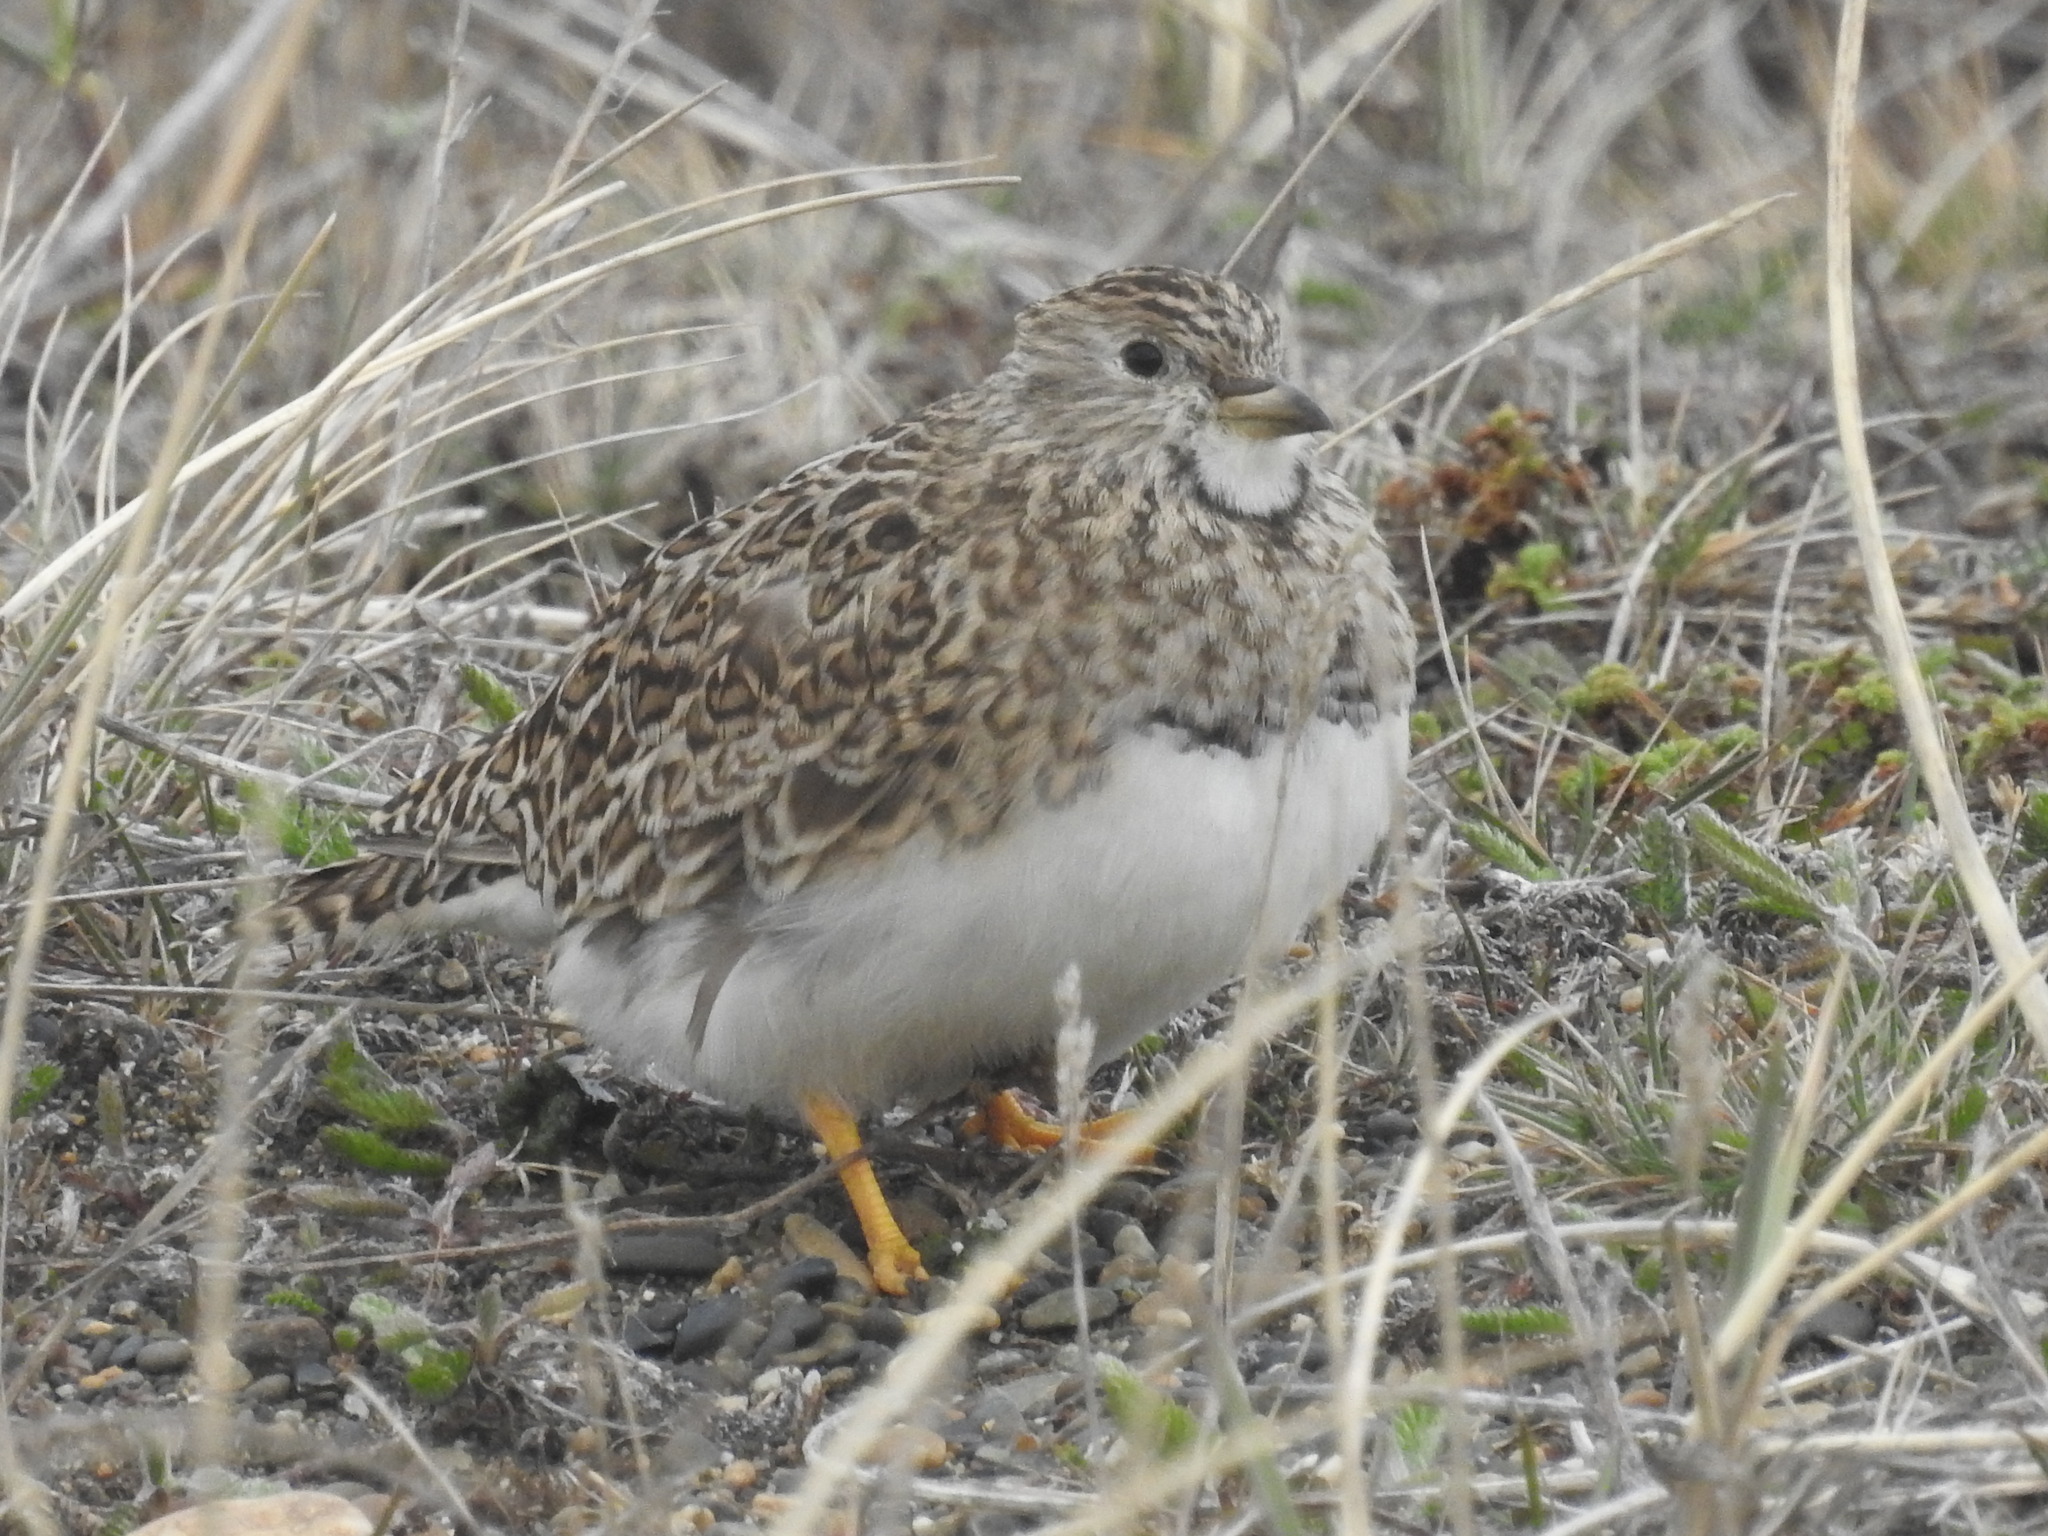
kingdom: Animalia
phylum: Chordata
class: Aves
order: Charadriiformes
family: Thinocoridae
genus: Thinocorus
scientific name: Thinocorus rumicivorus
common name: Least seedsnipe
